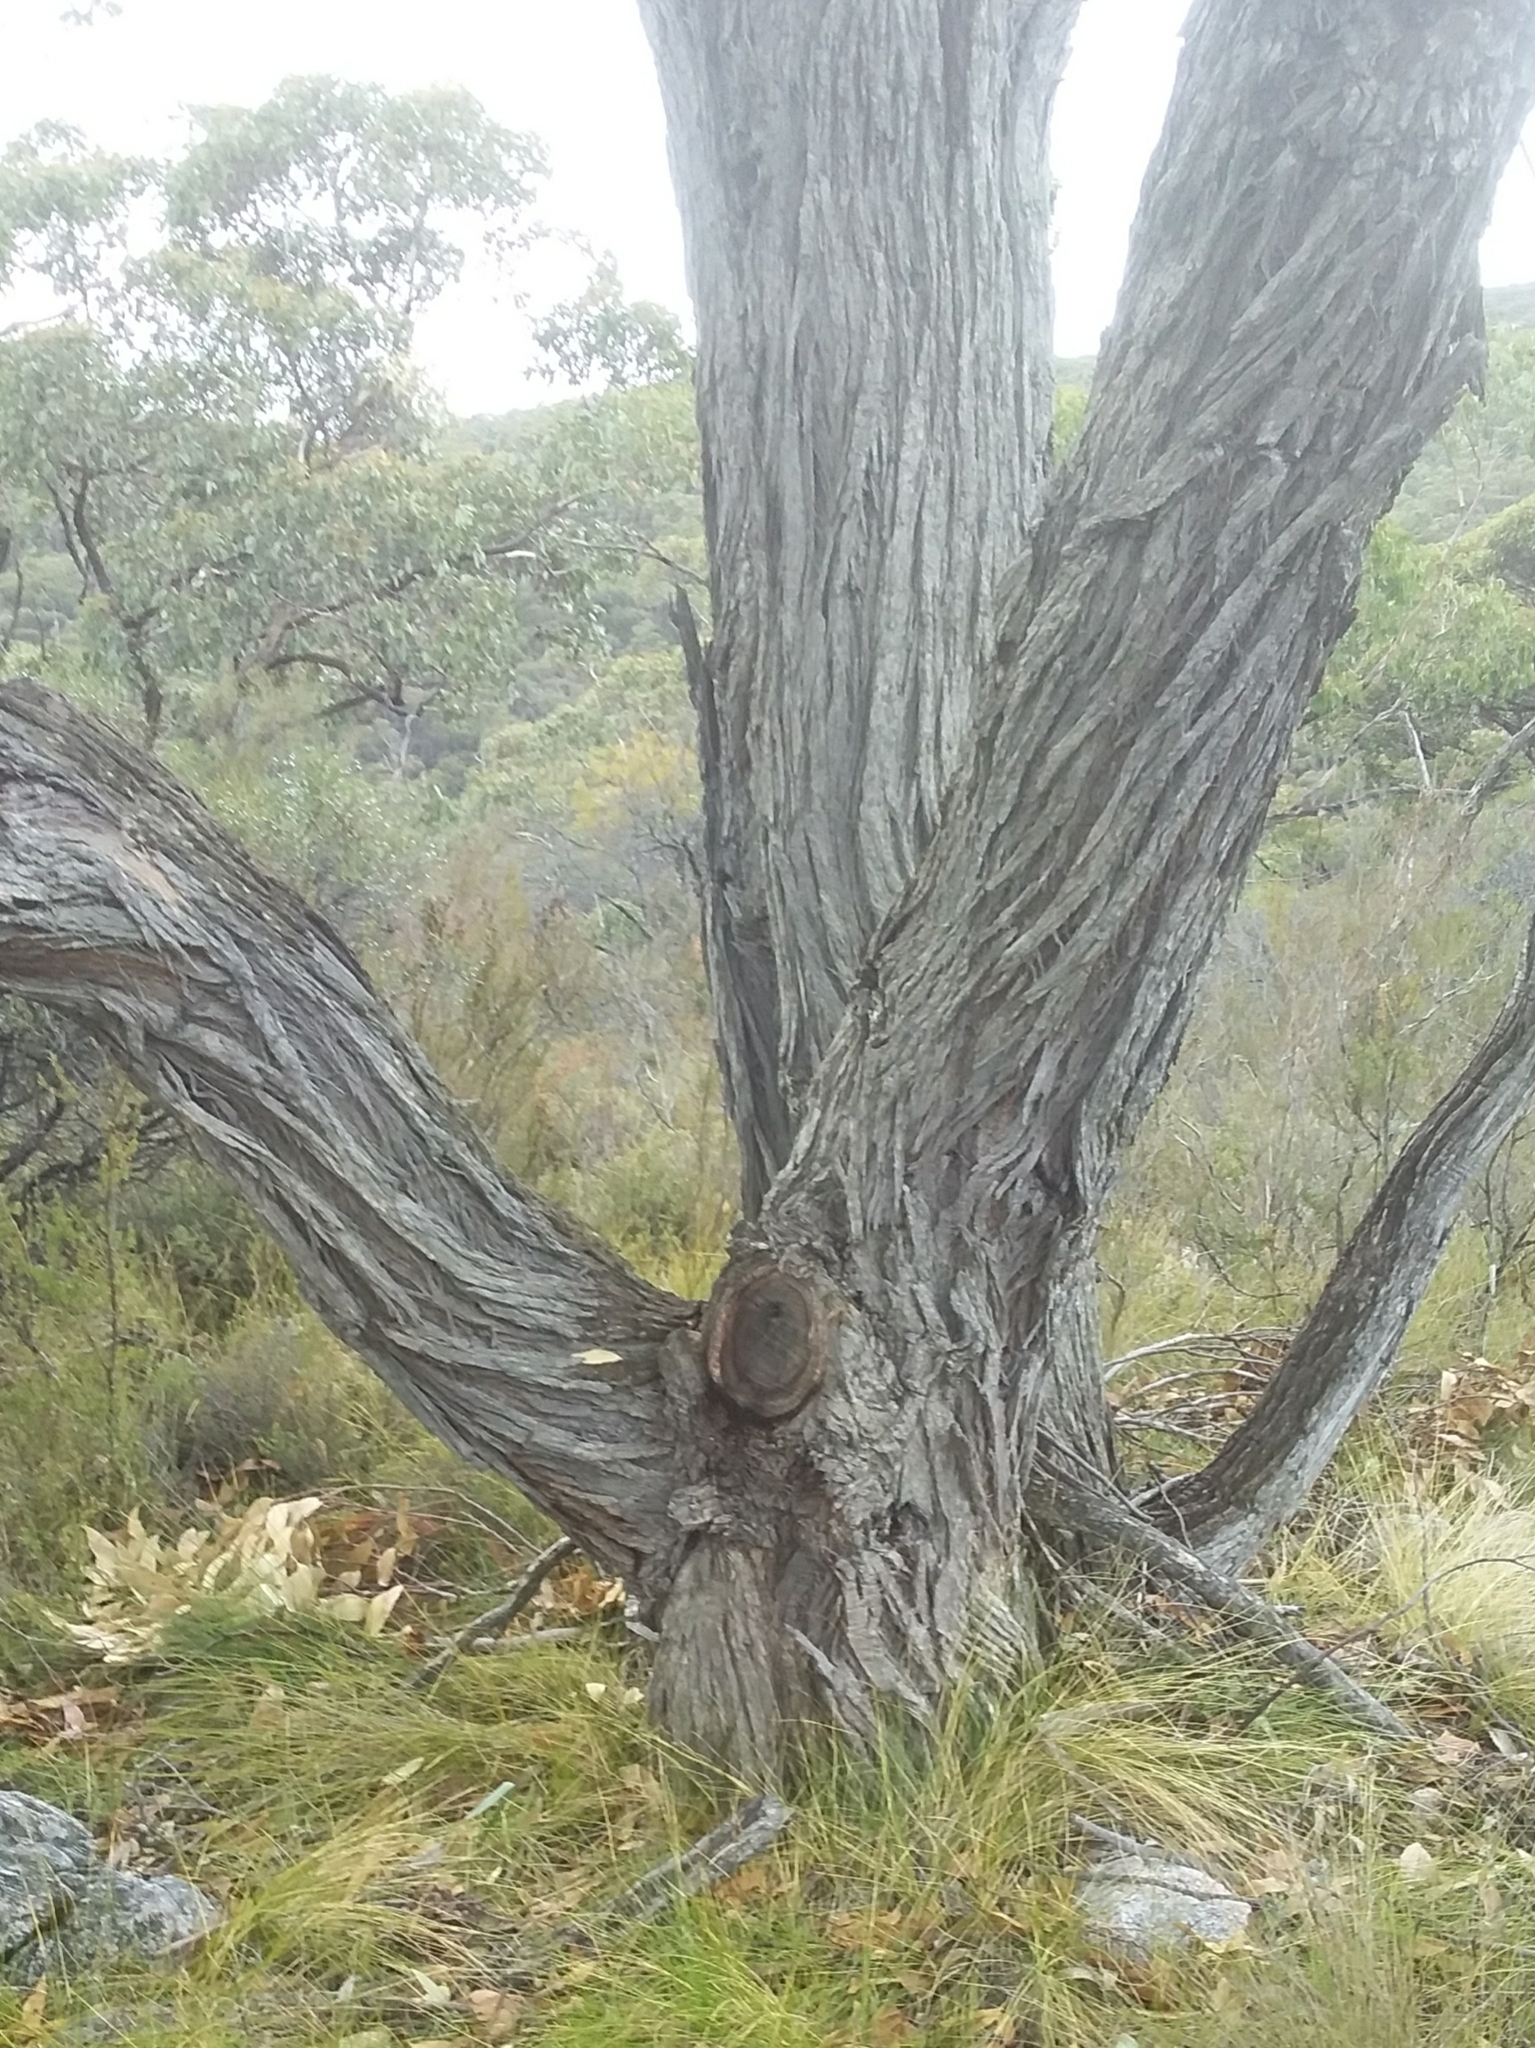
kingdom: Plantae
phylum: Tracheophyta
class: Magnoliopsida
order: Myrtales
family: Myrtaceae
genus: Eucalyptus
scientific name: Eucalyptus baxteri
